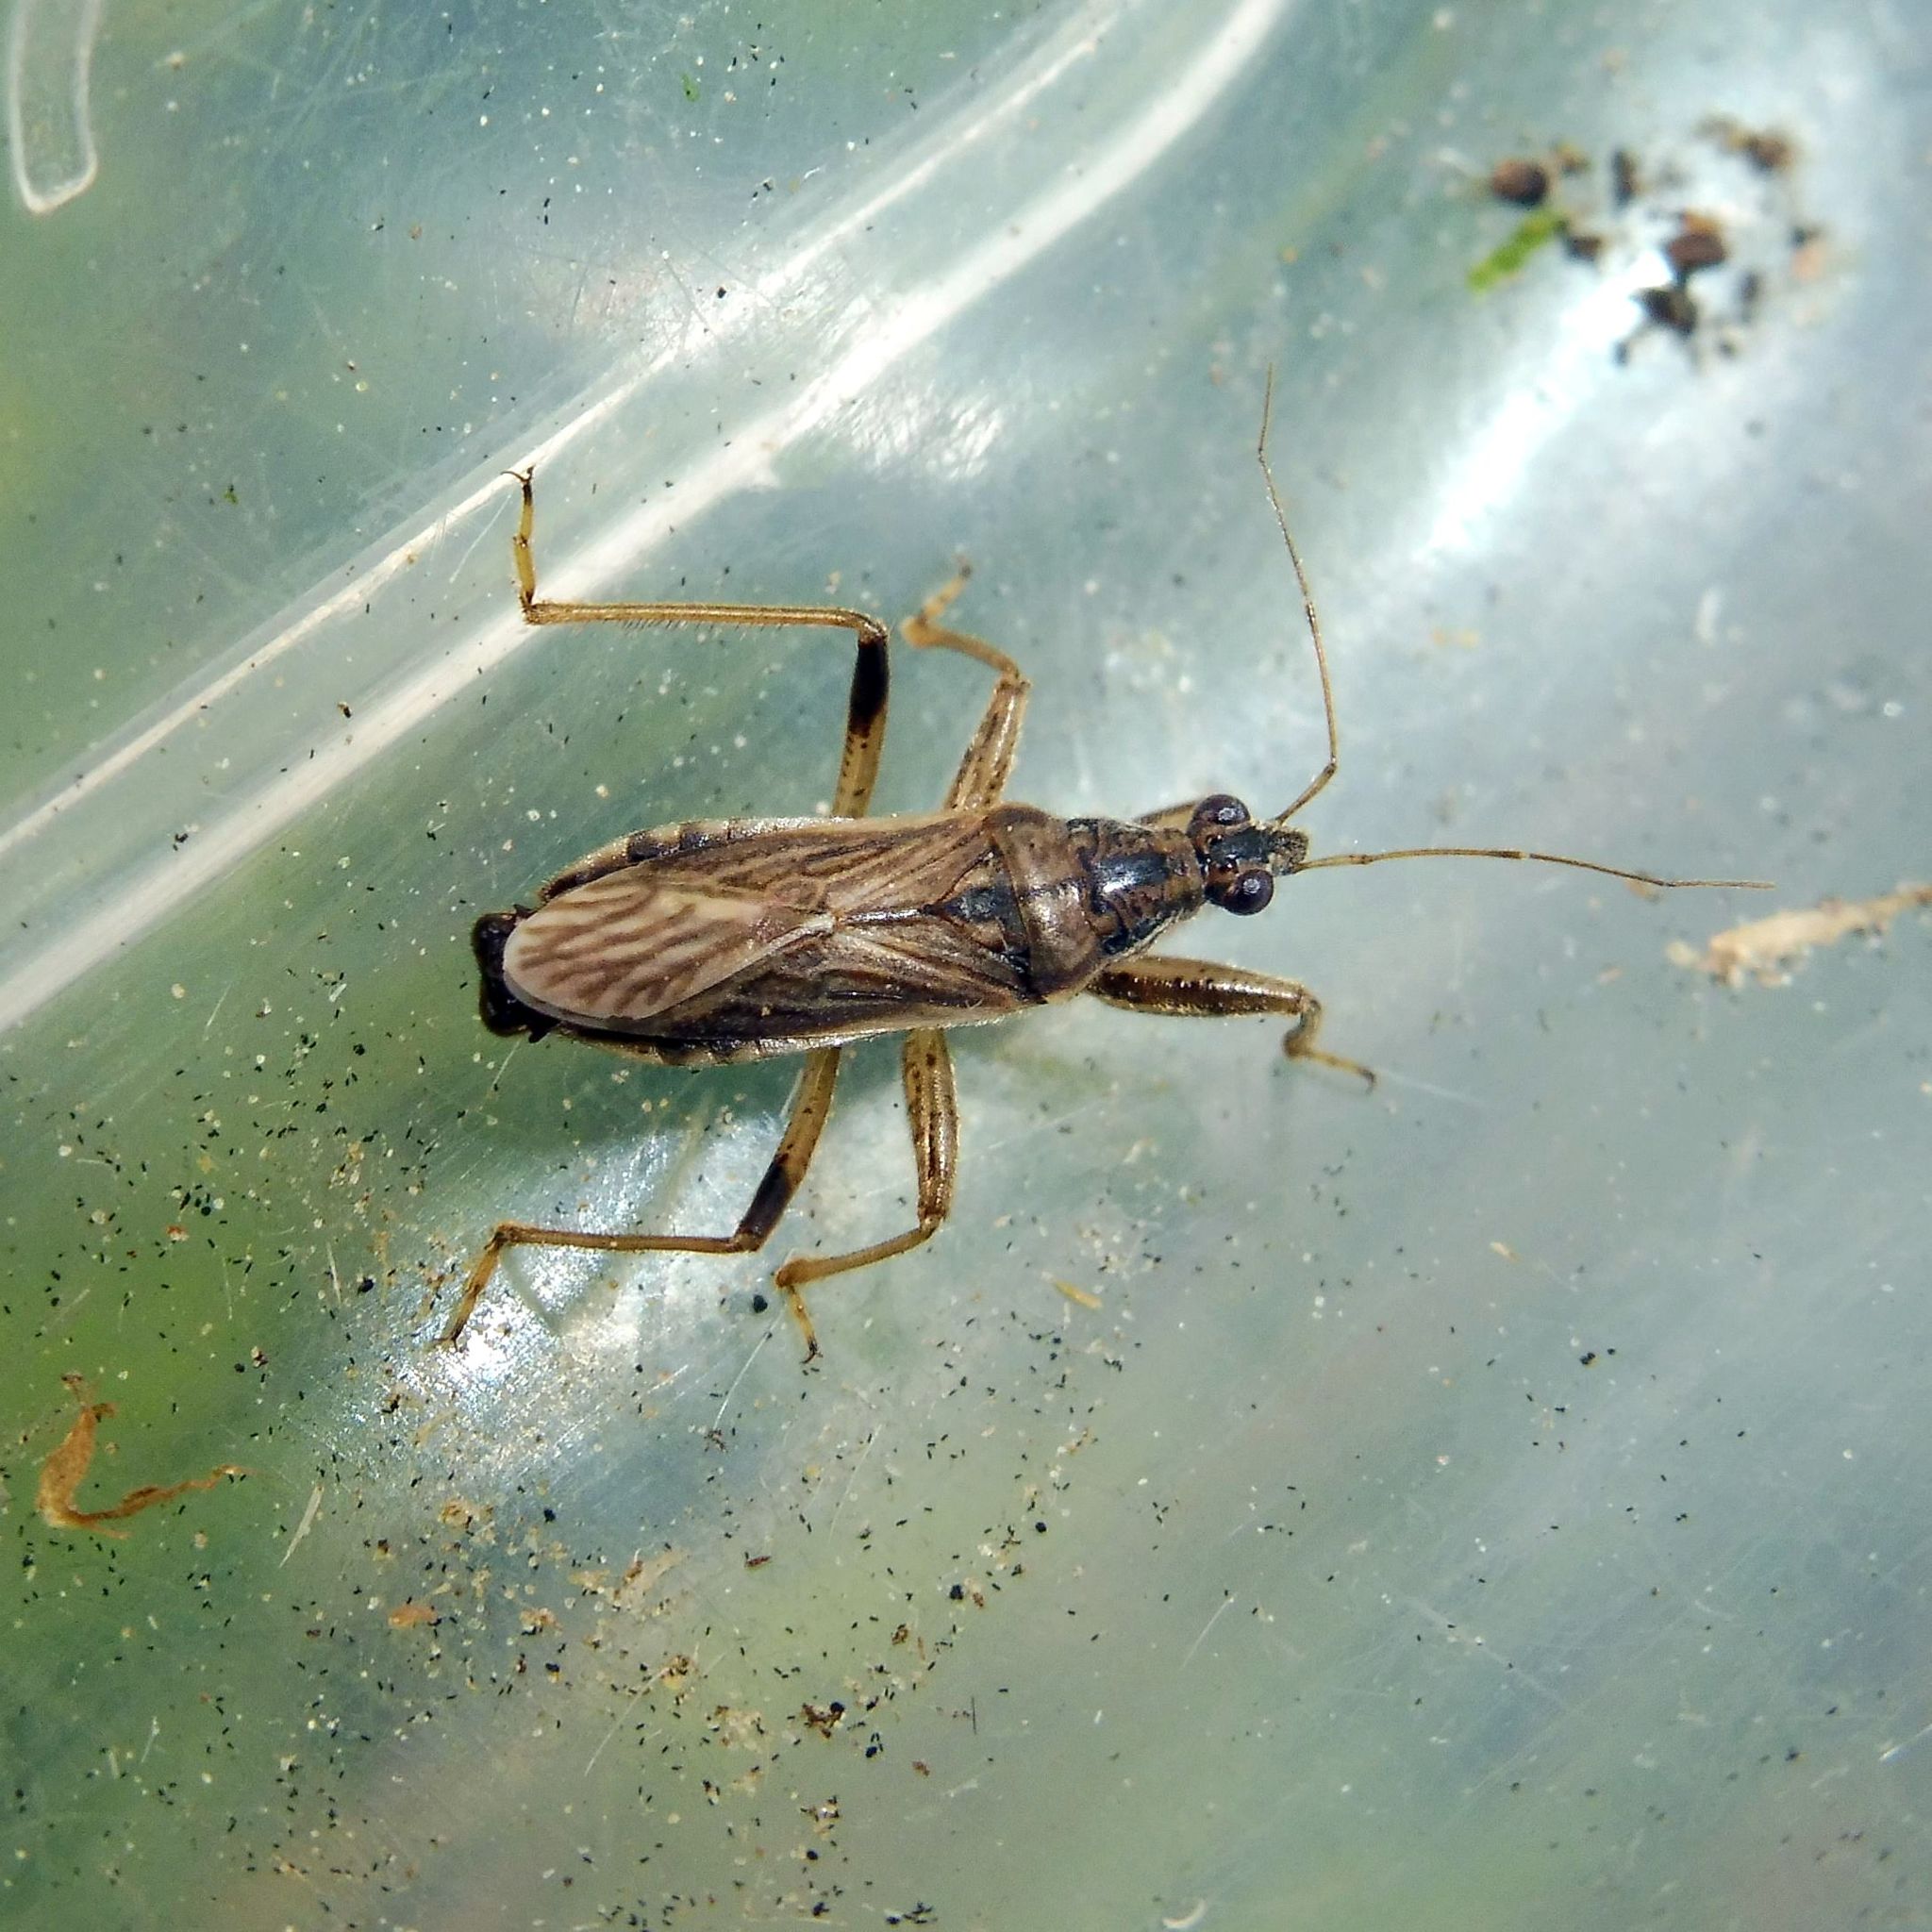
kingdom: Animalia
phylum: Arthropoda
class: Insecta
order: Hemiptera
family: Nabidae
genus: Himacerus
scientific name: Himacerus major
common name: Damsel bug
